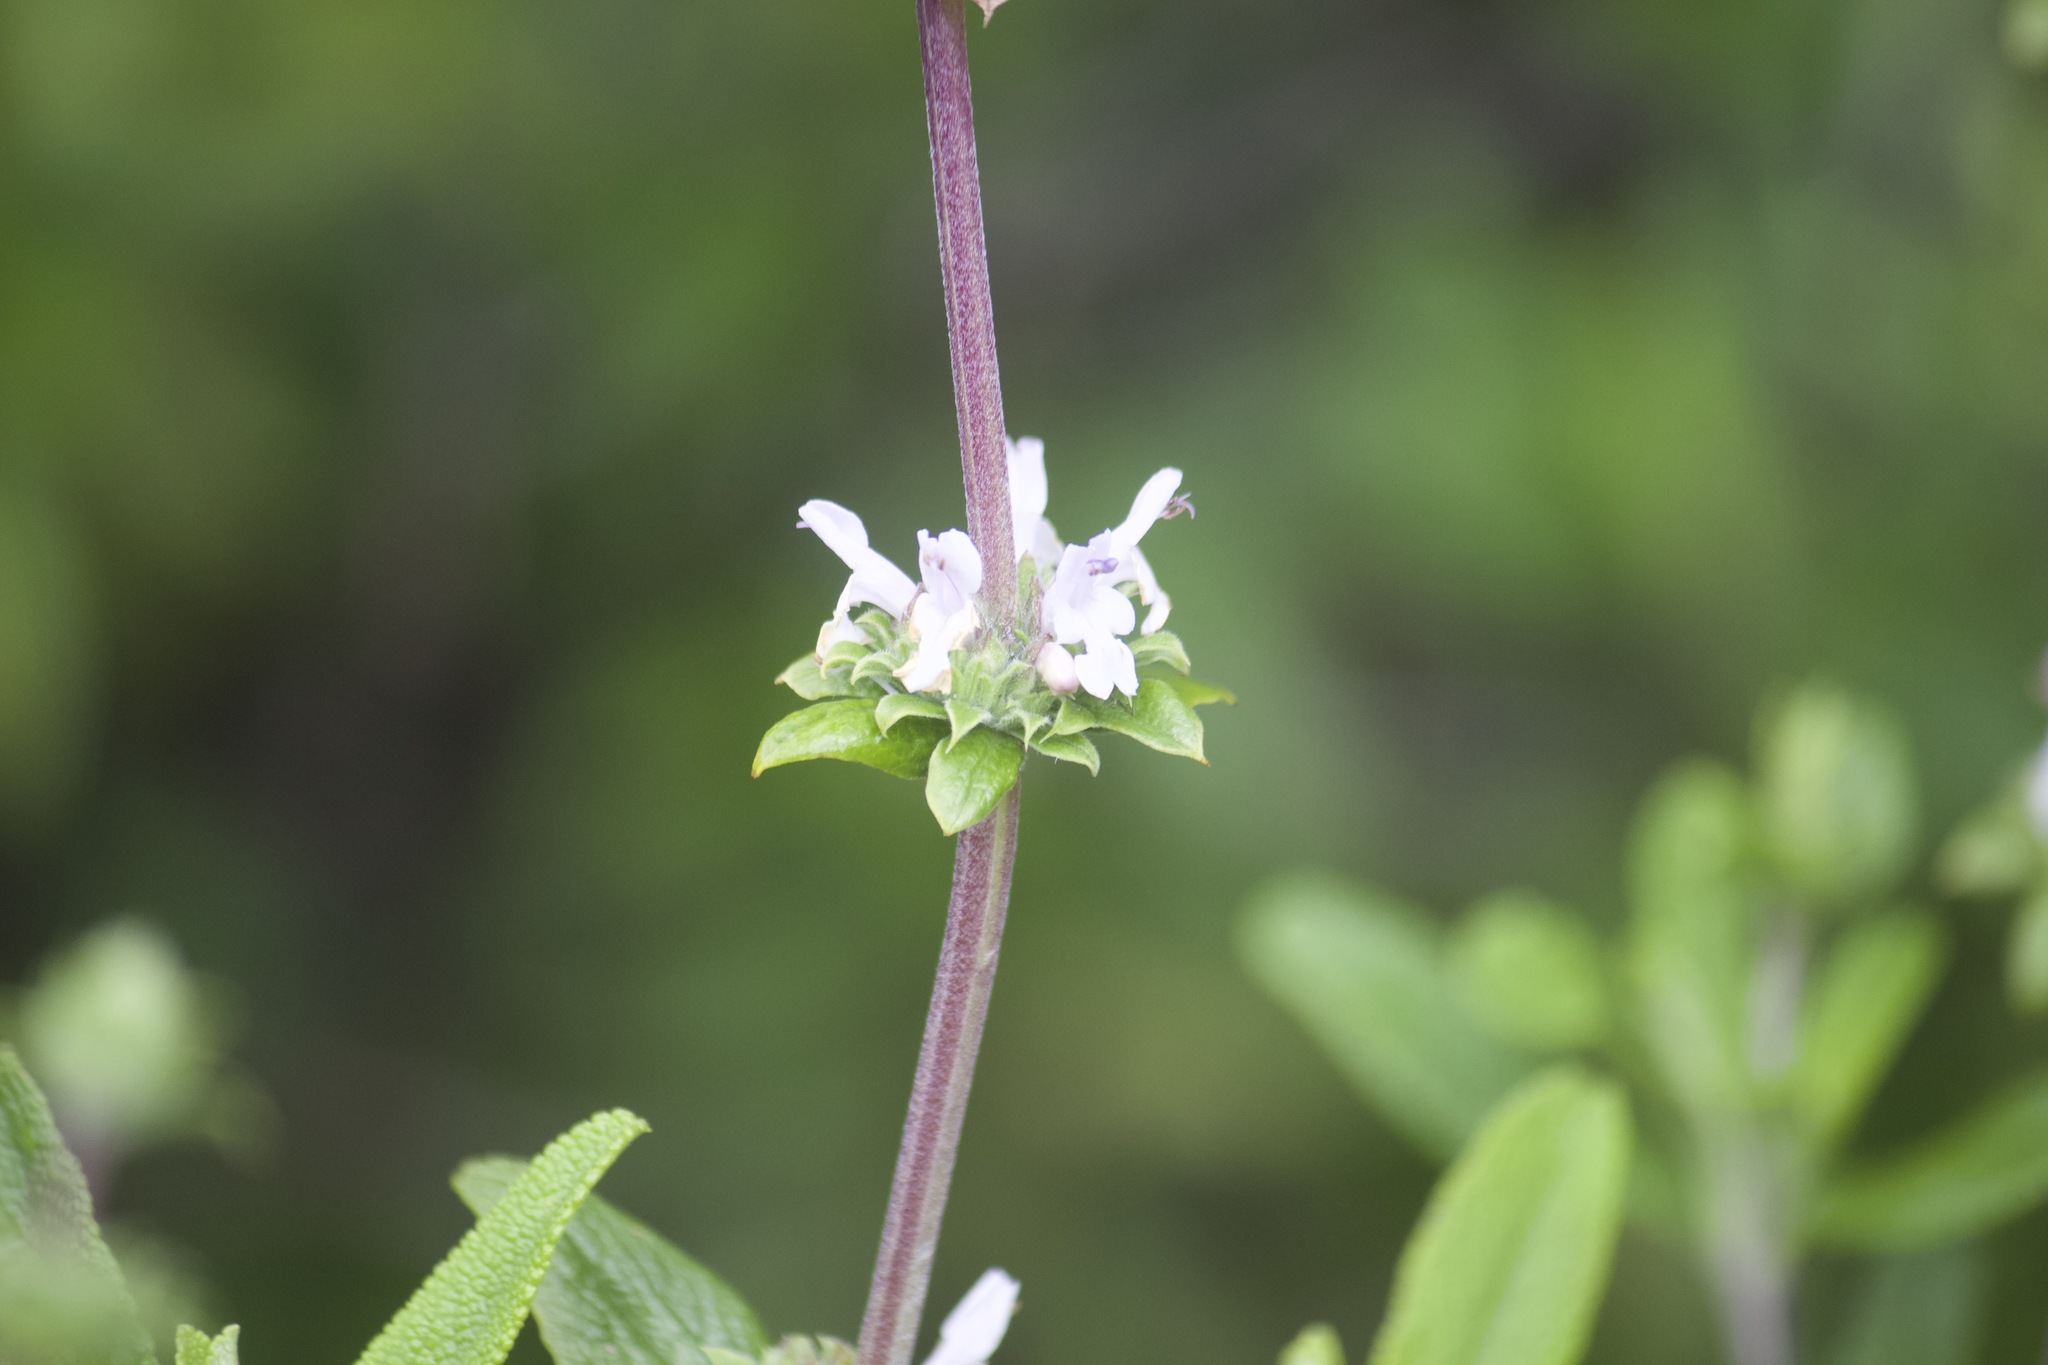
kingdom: Plantae
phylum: Tracheophyta
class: Magnoliopsida
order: Lamiales
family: Lamiaceae
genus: Salvia
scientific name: Salvia mellifera
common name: Black sage
